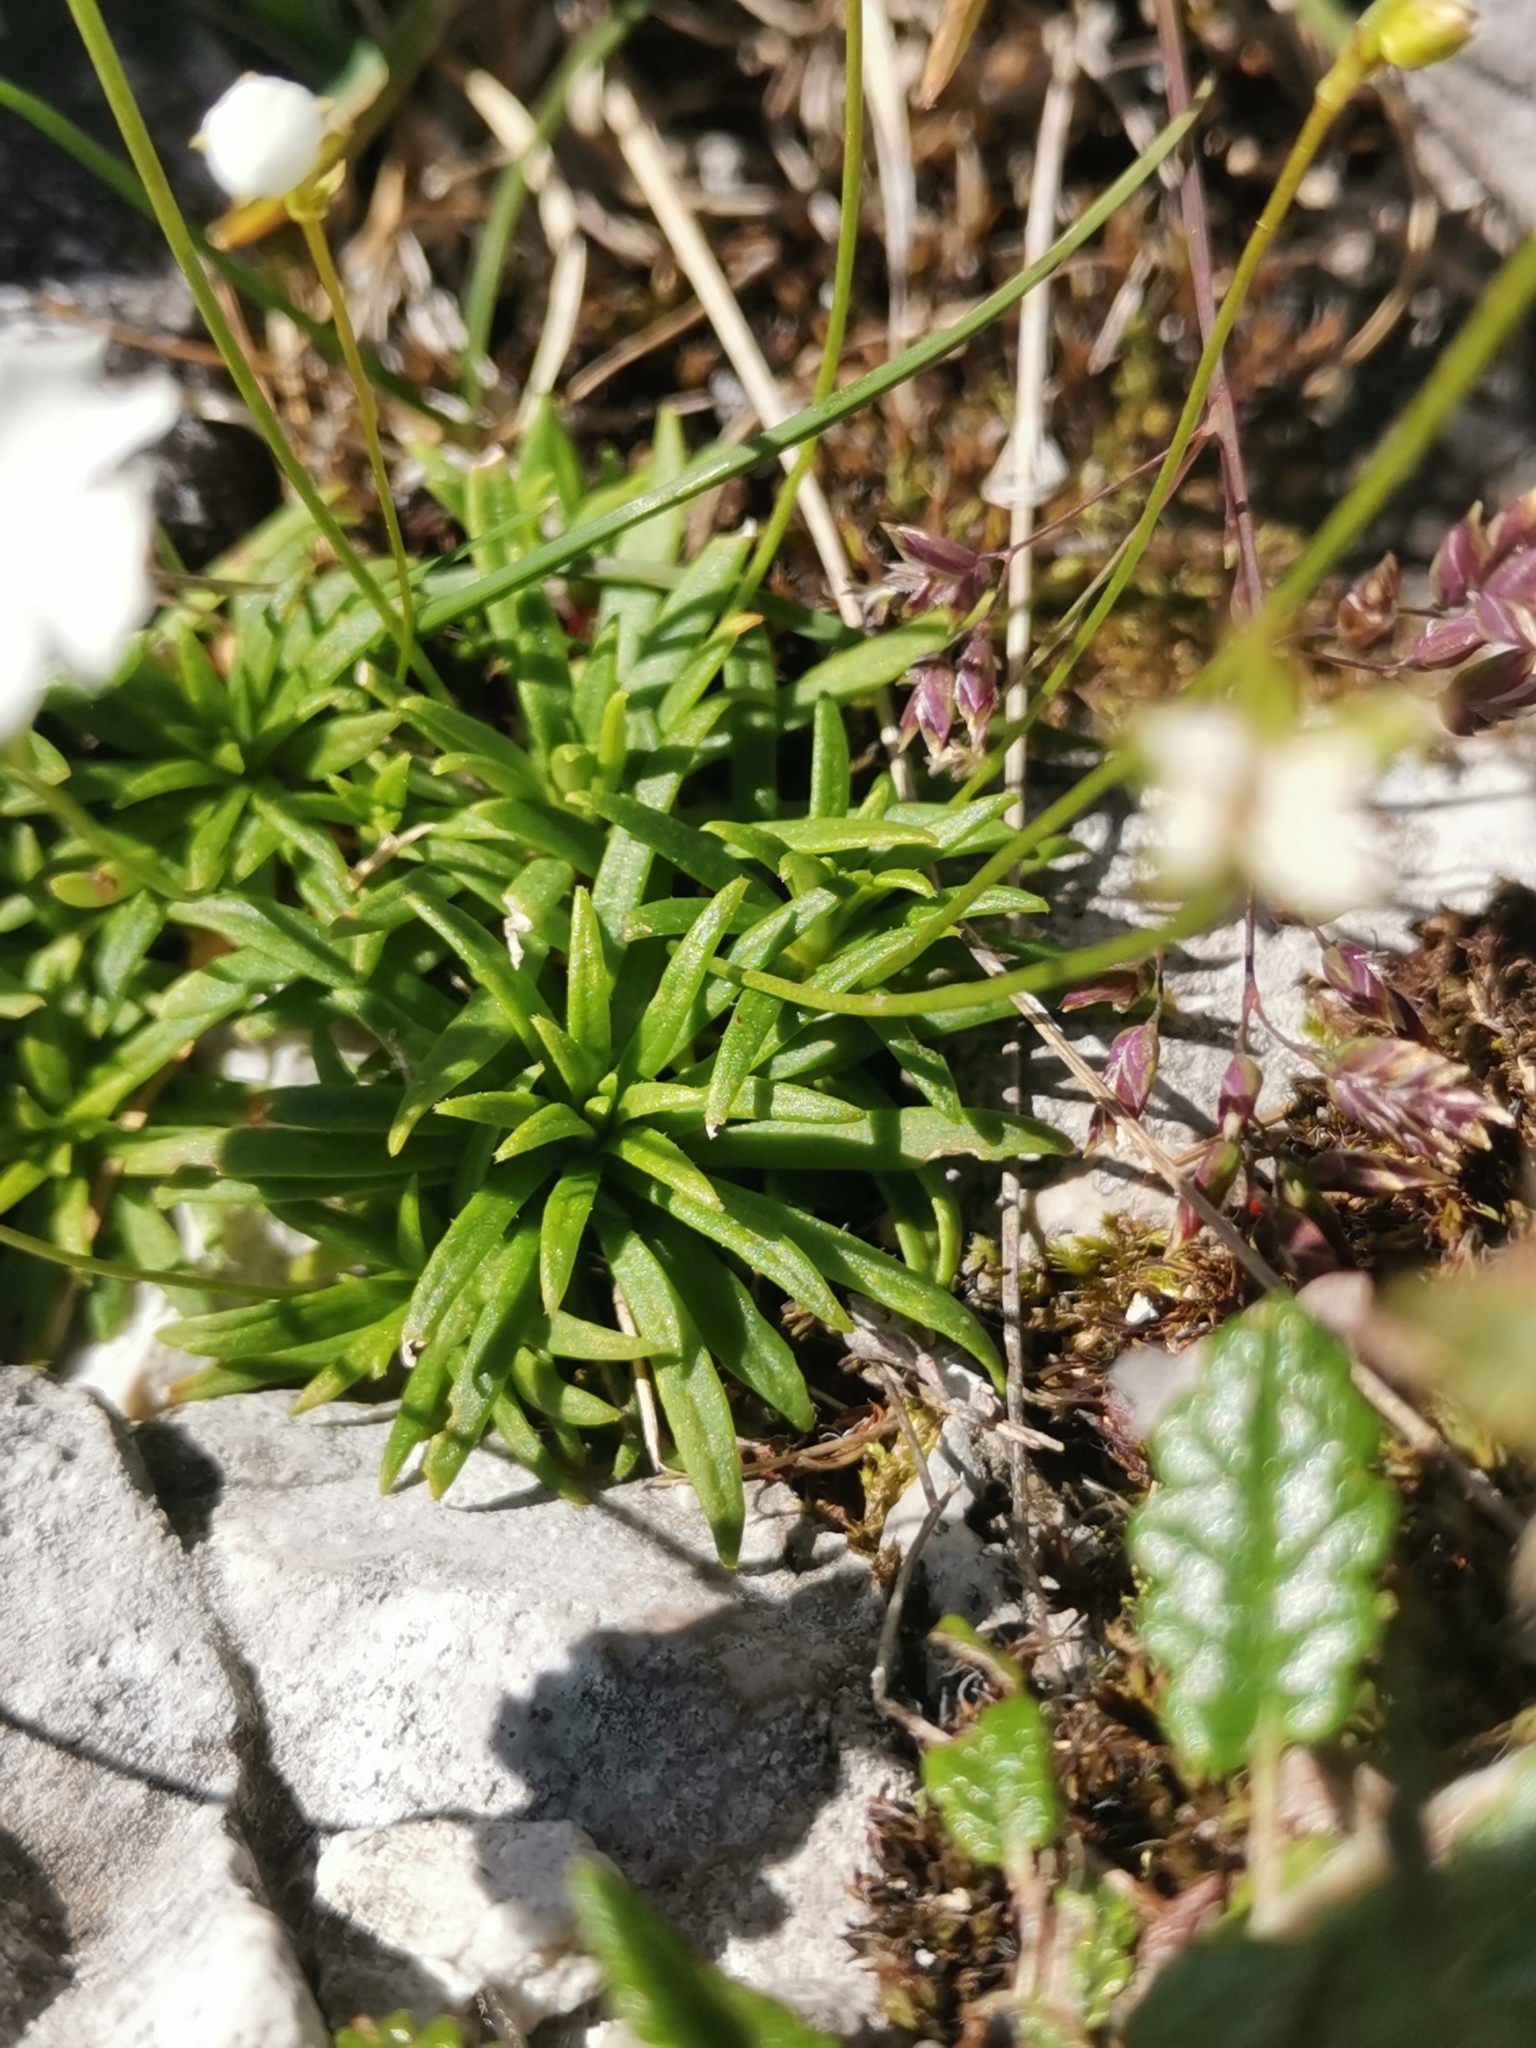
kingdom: Plantae
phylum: Tracheophyta
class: Magnoliopsida
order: Ericales
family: Primulaceae
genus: Androsace
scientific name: Androsace lactea
